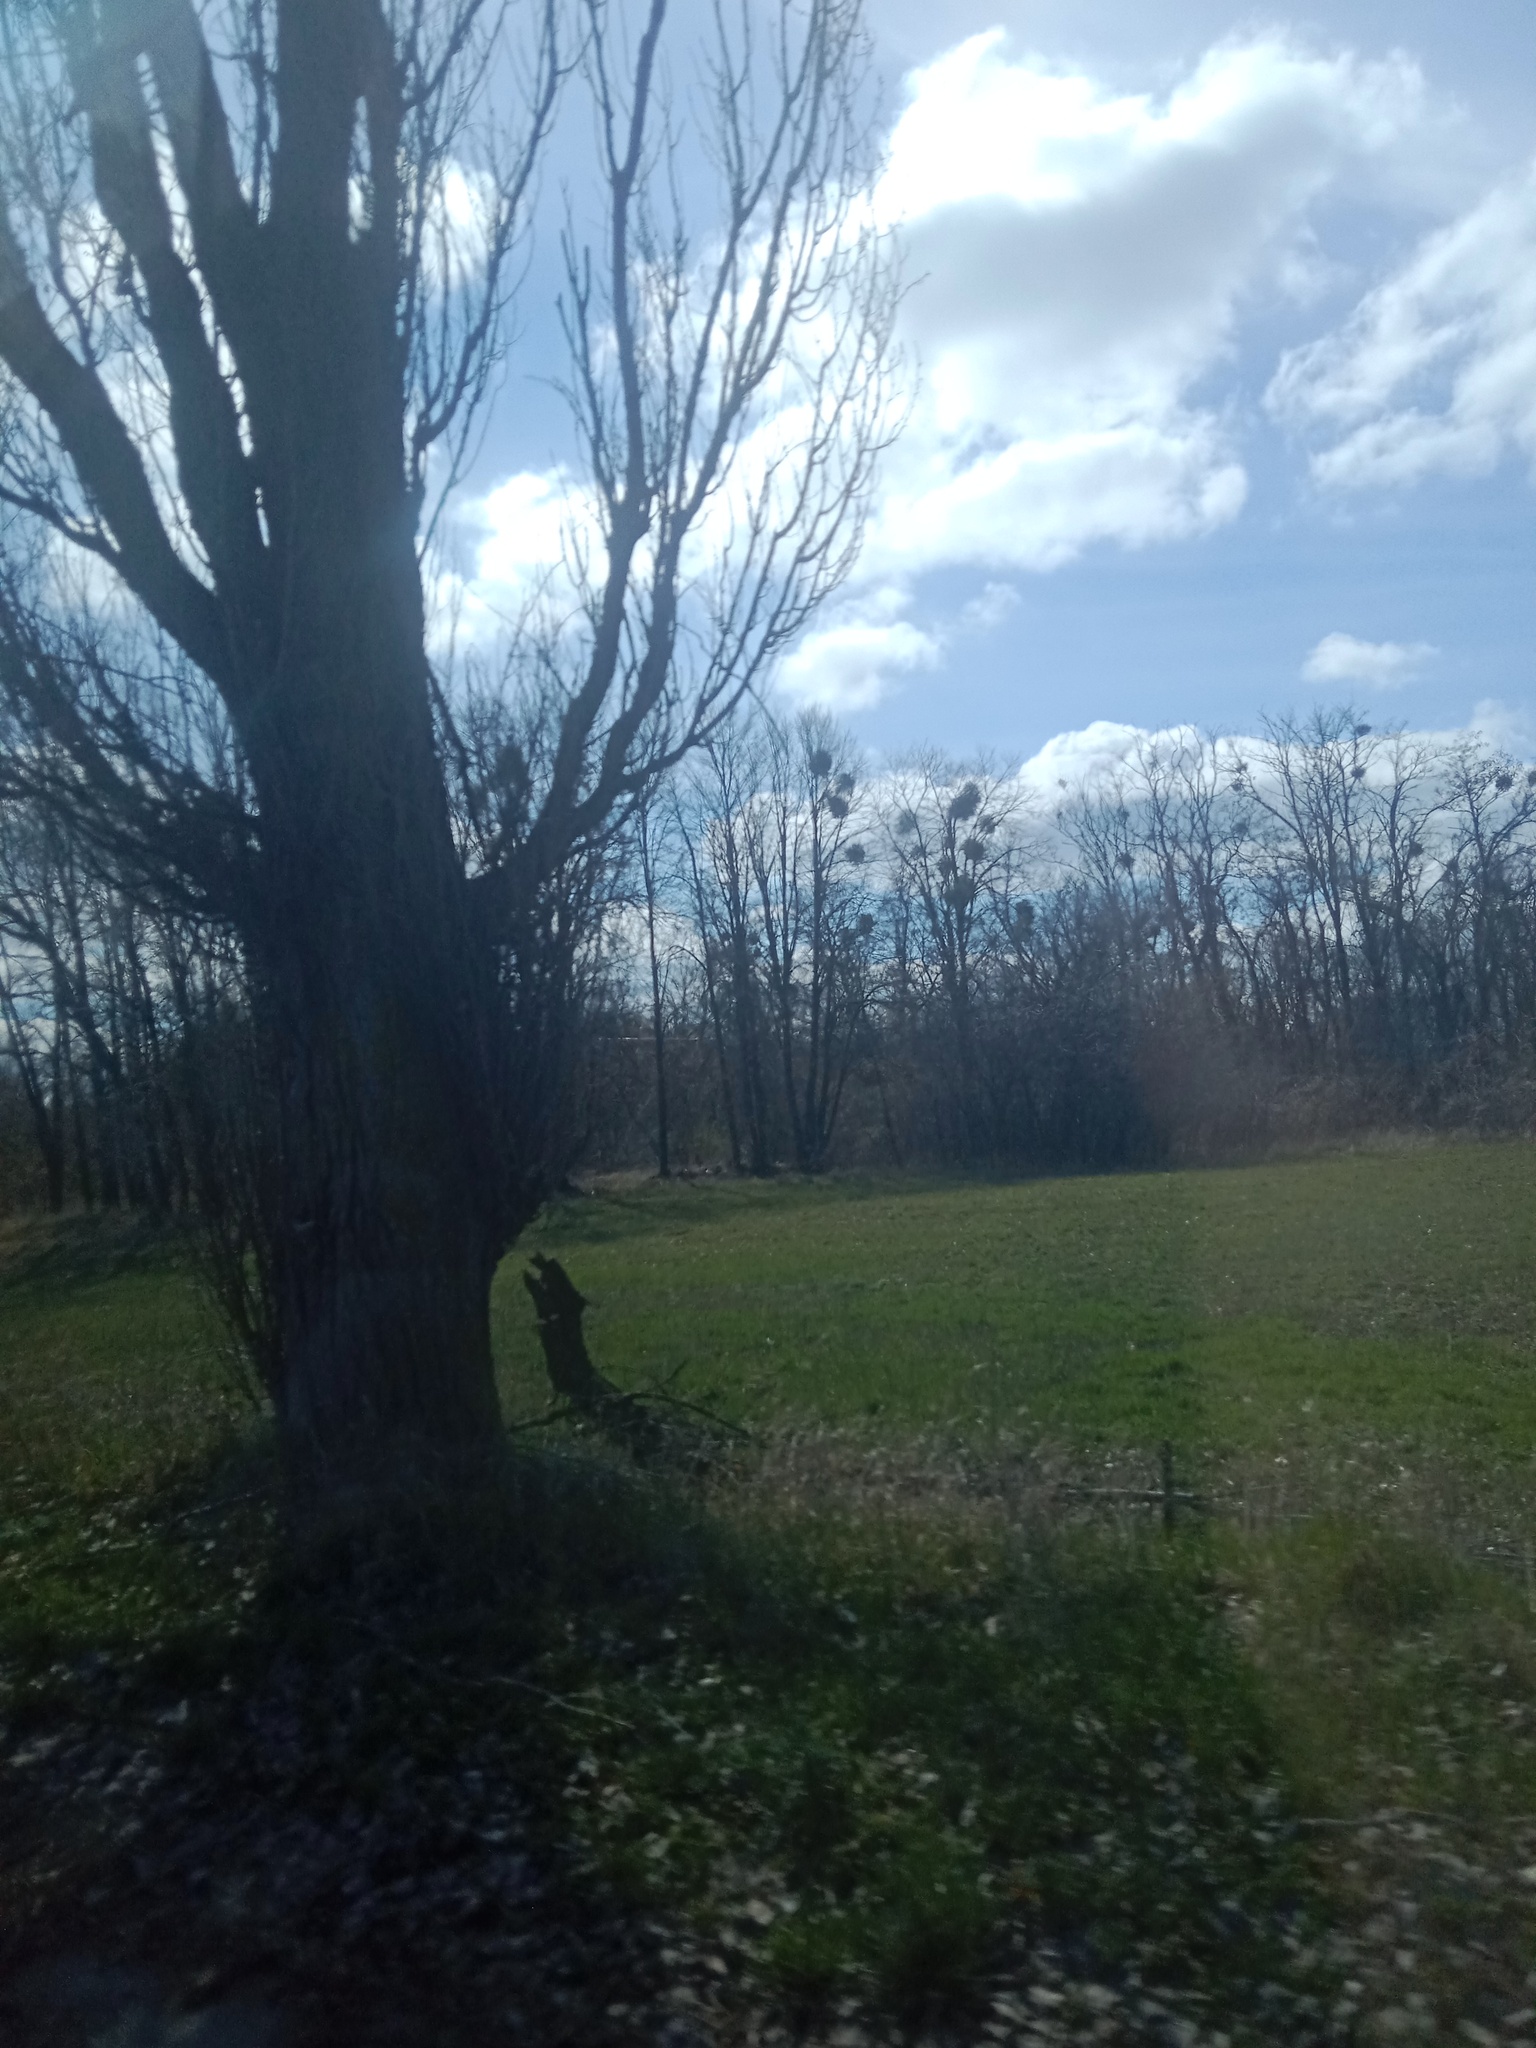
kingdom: Plantae
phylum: Tracheophyta
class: Magnoliopsida
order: Santalales
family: Viscaceae
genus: Viscum
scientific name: Viscum album
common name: Mistletoe
